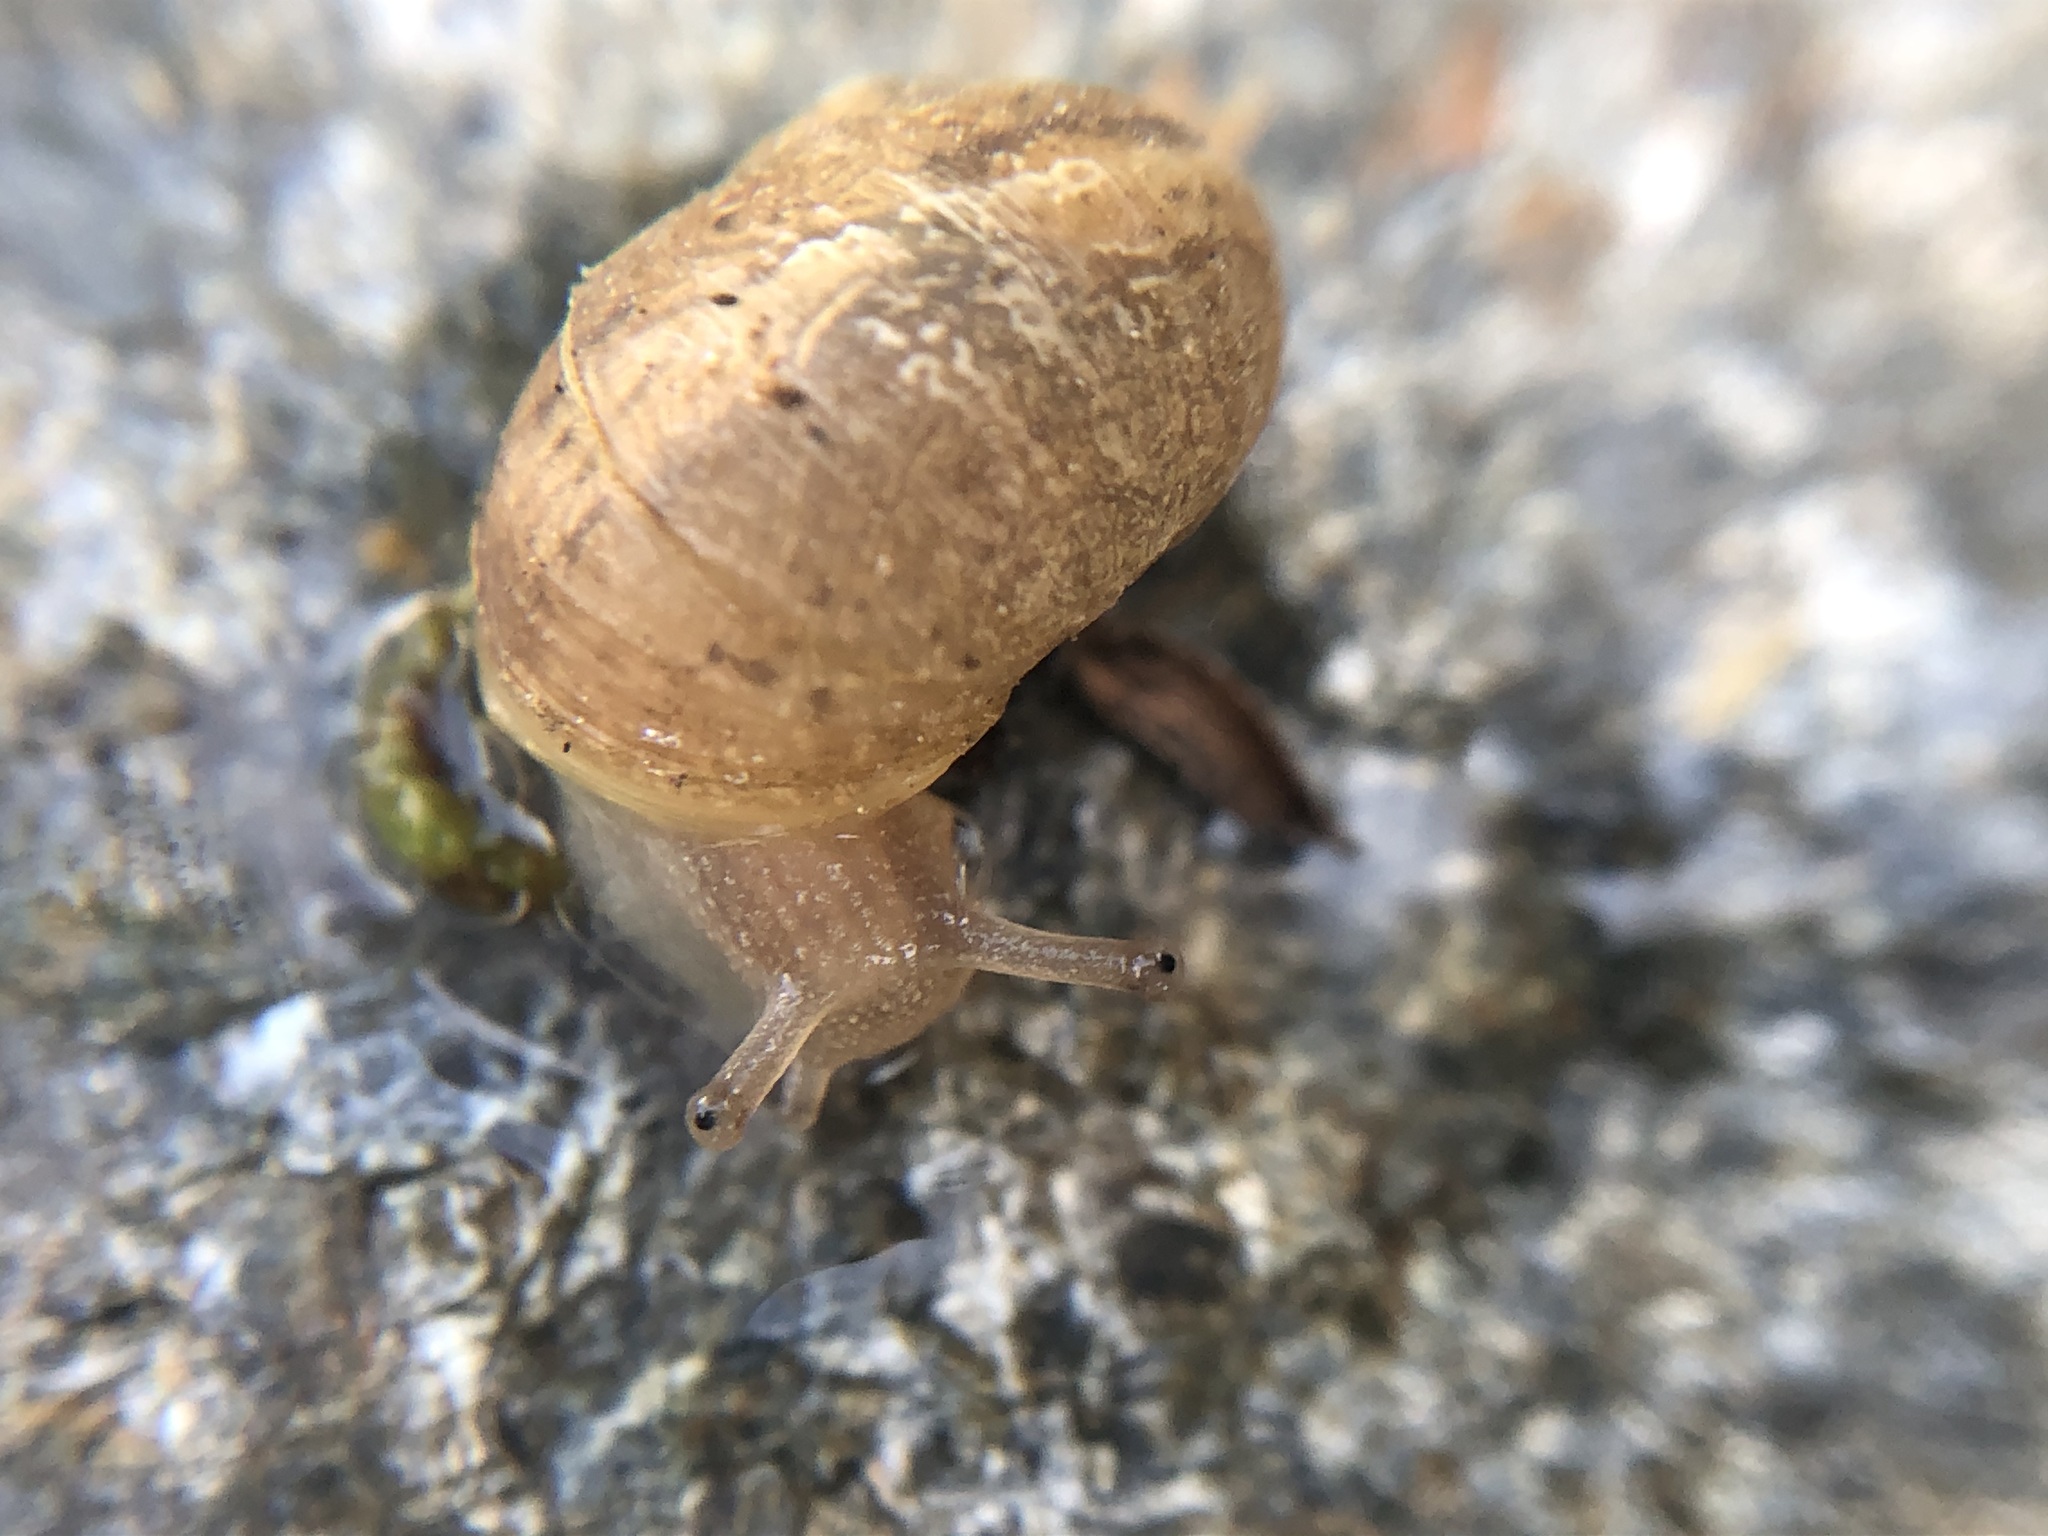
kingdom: Animalia
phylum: Mollusca
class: Gastropoda
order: Stylommatophora
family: Helicidae
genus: Cornu
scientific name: Cornu aspersum
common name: Brown garden snail
